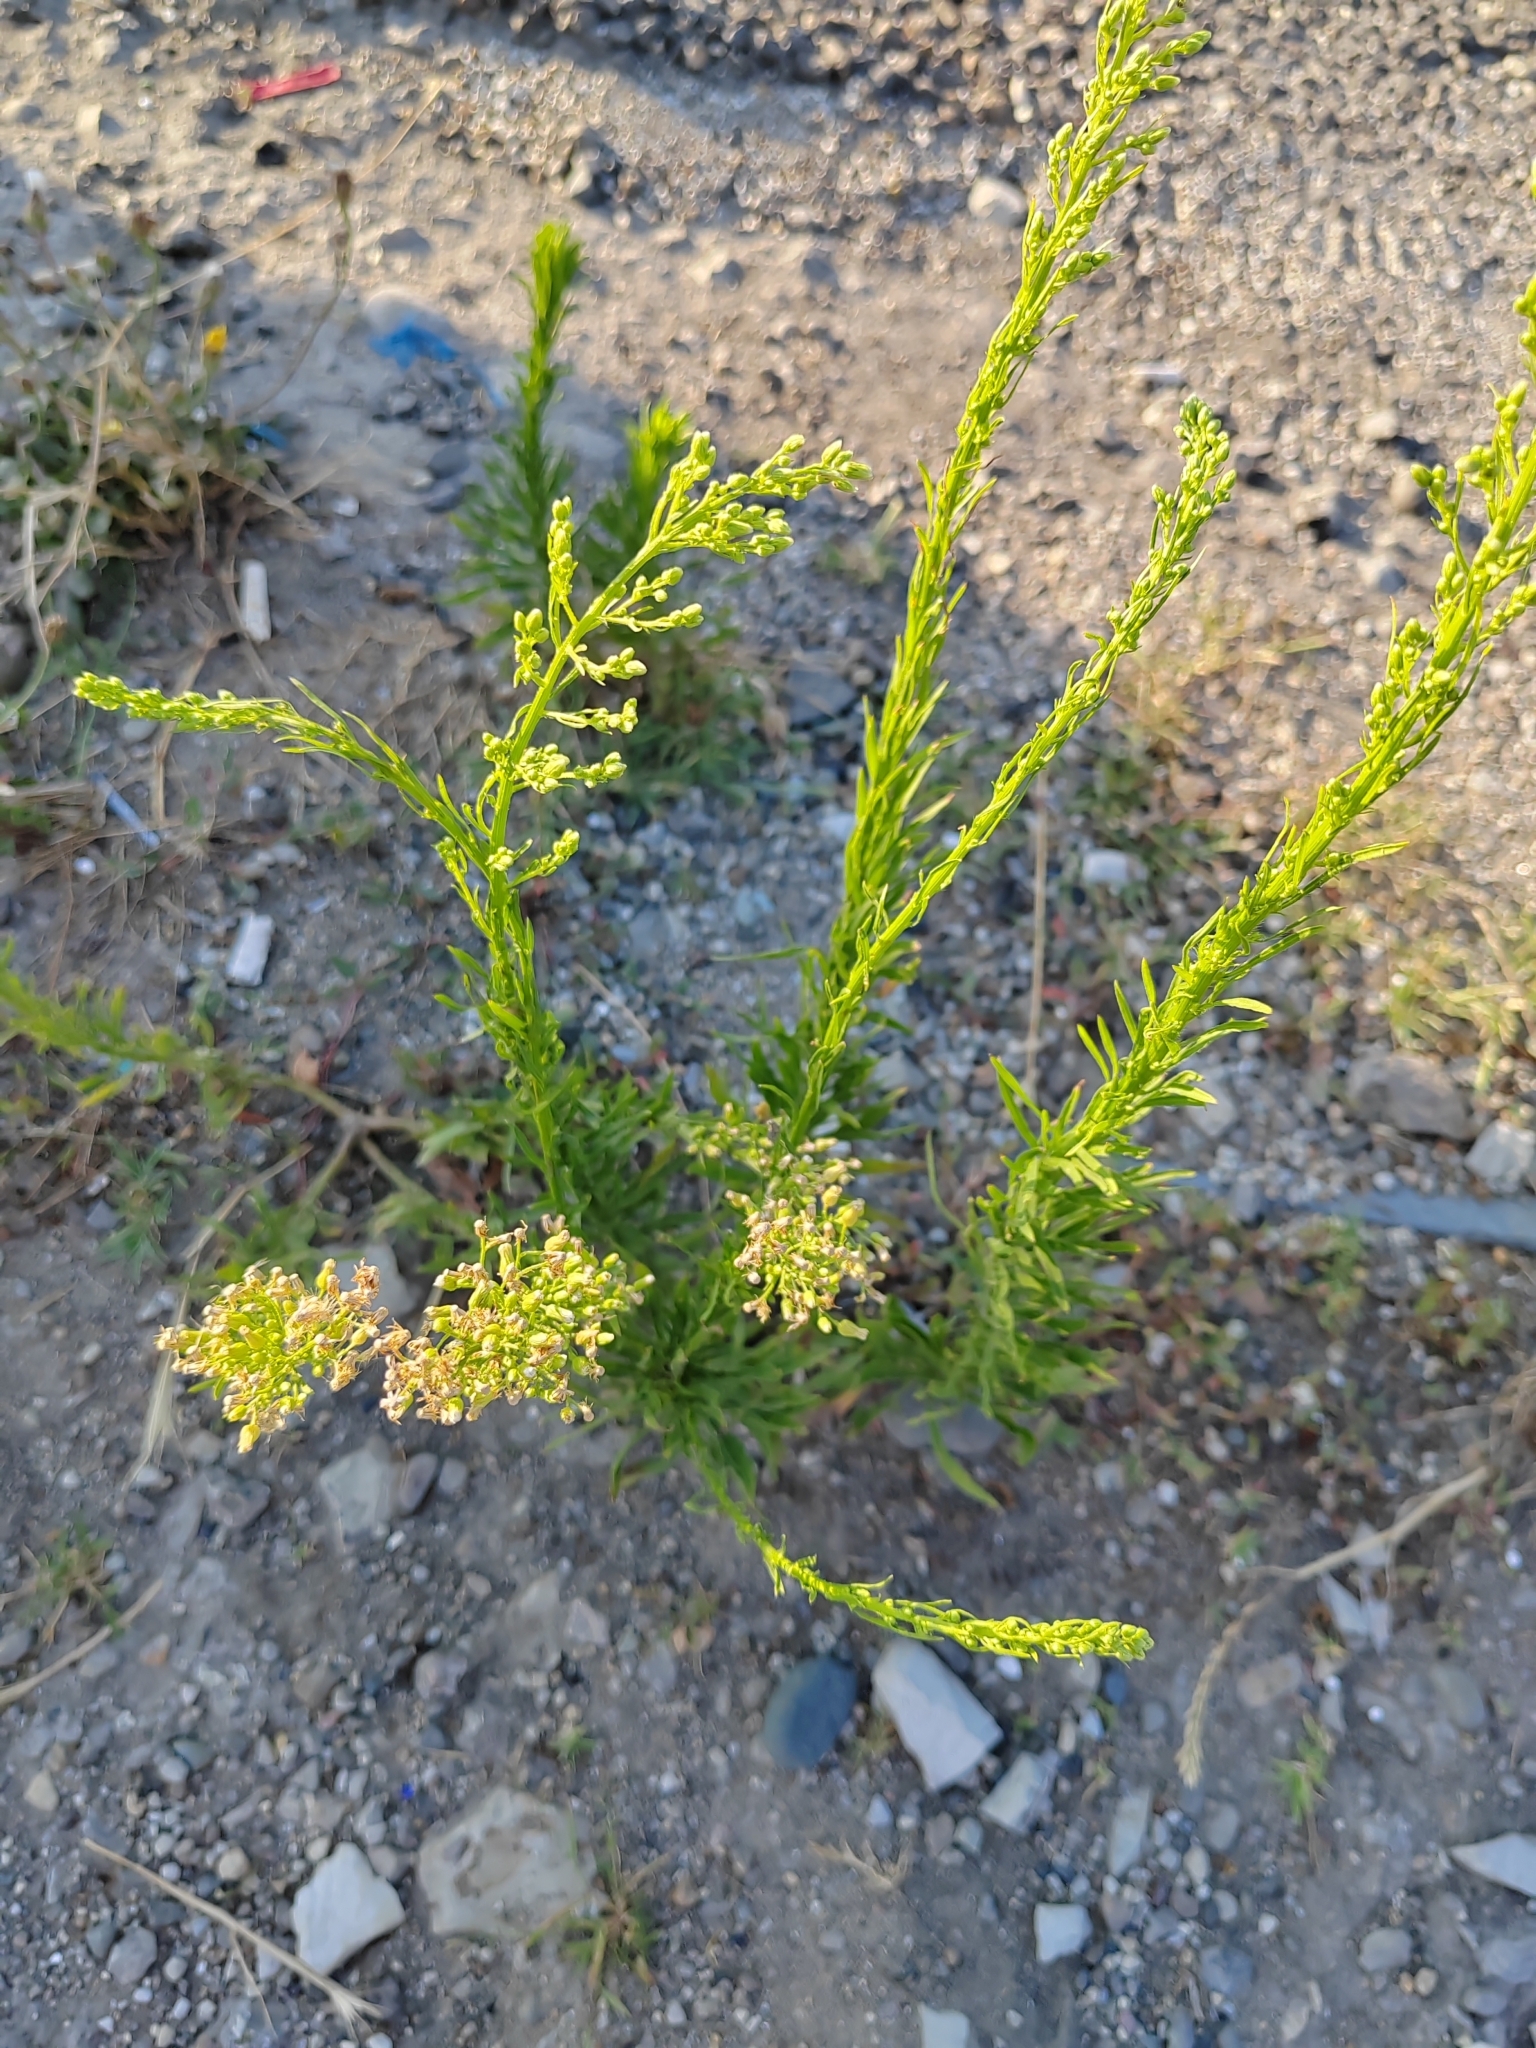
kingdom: Plantae
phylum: Tracheophyta
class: Magnoliopsida
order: Asterales
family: Asteraceae
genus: Erigeron
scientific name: Erigeron canadensis
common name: Canadian fleabane
